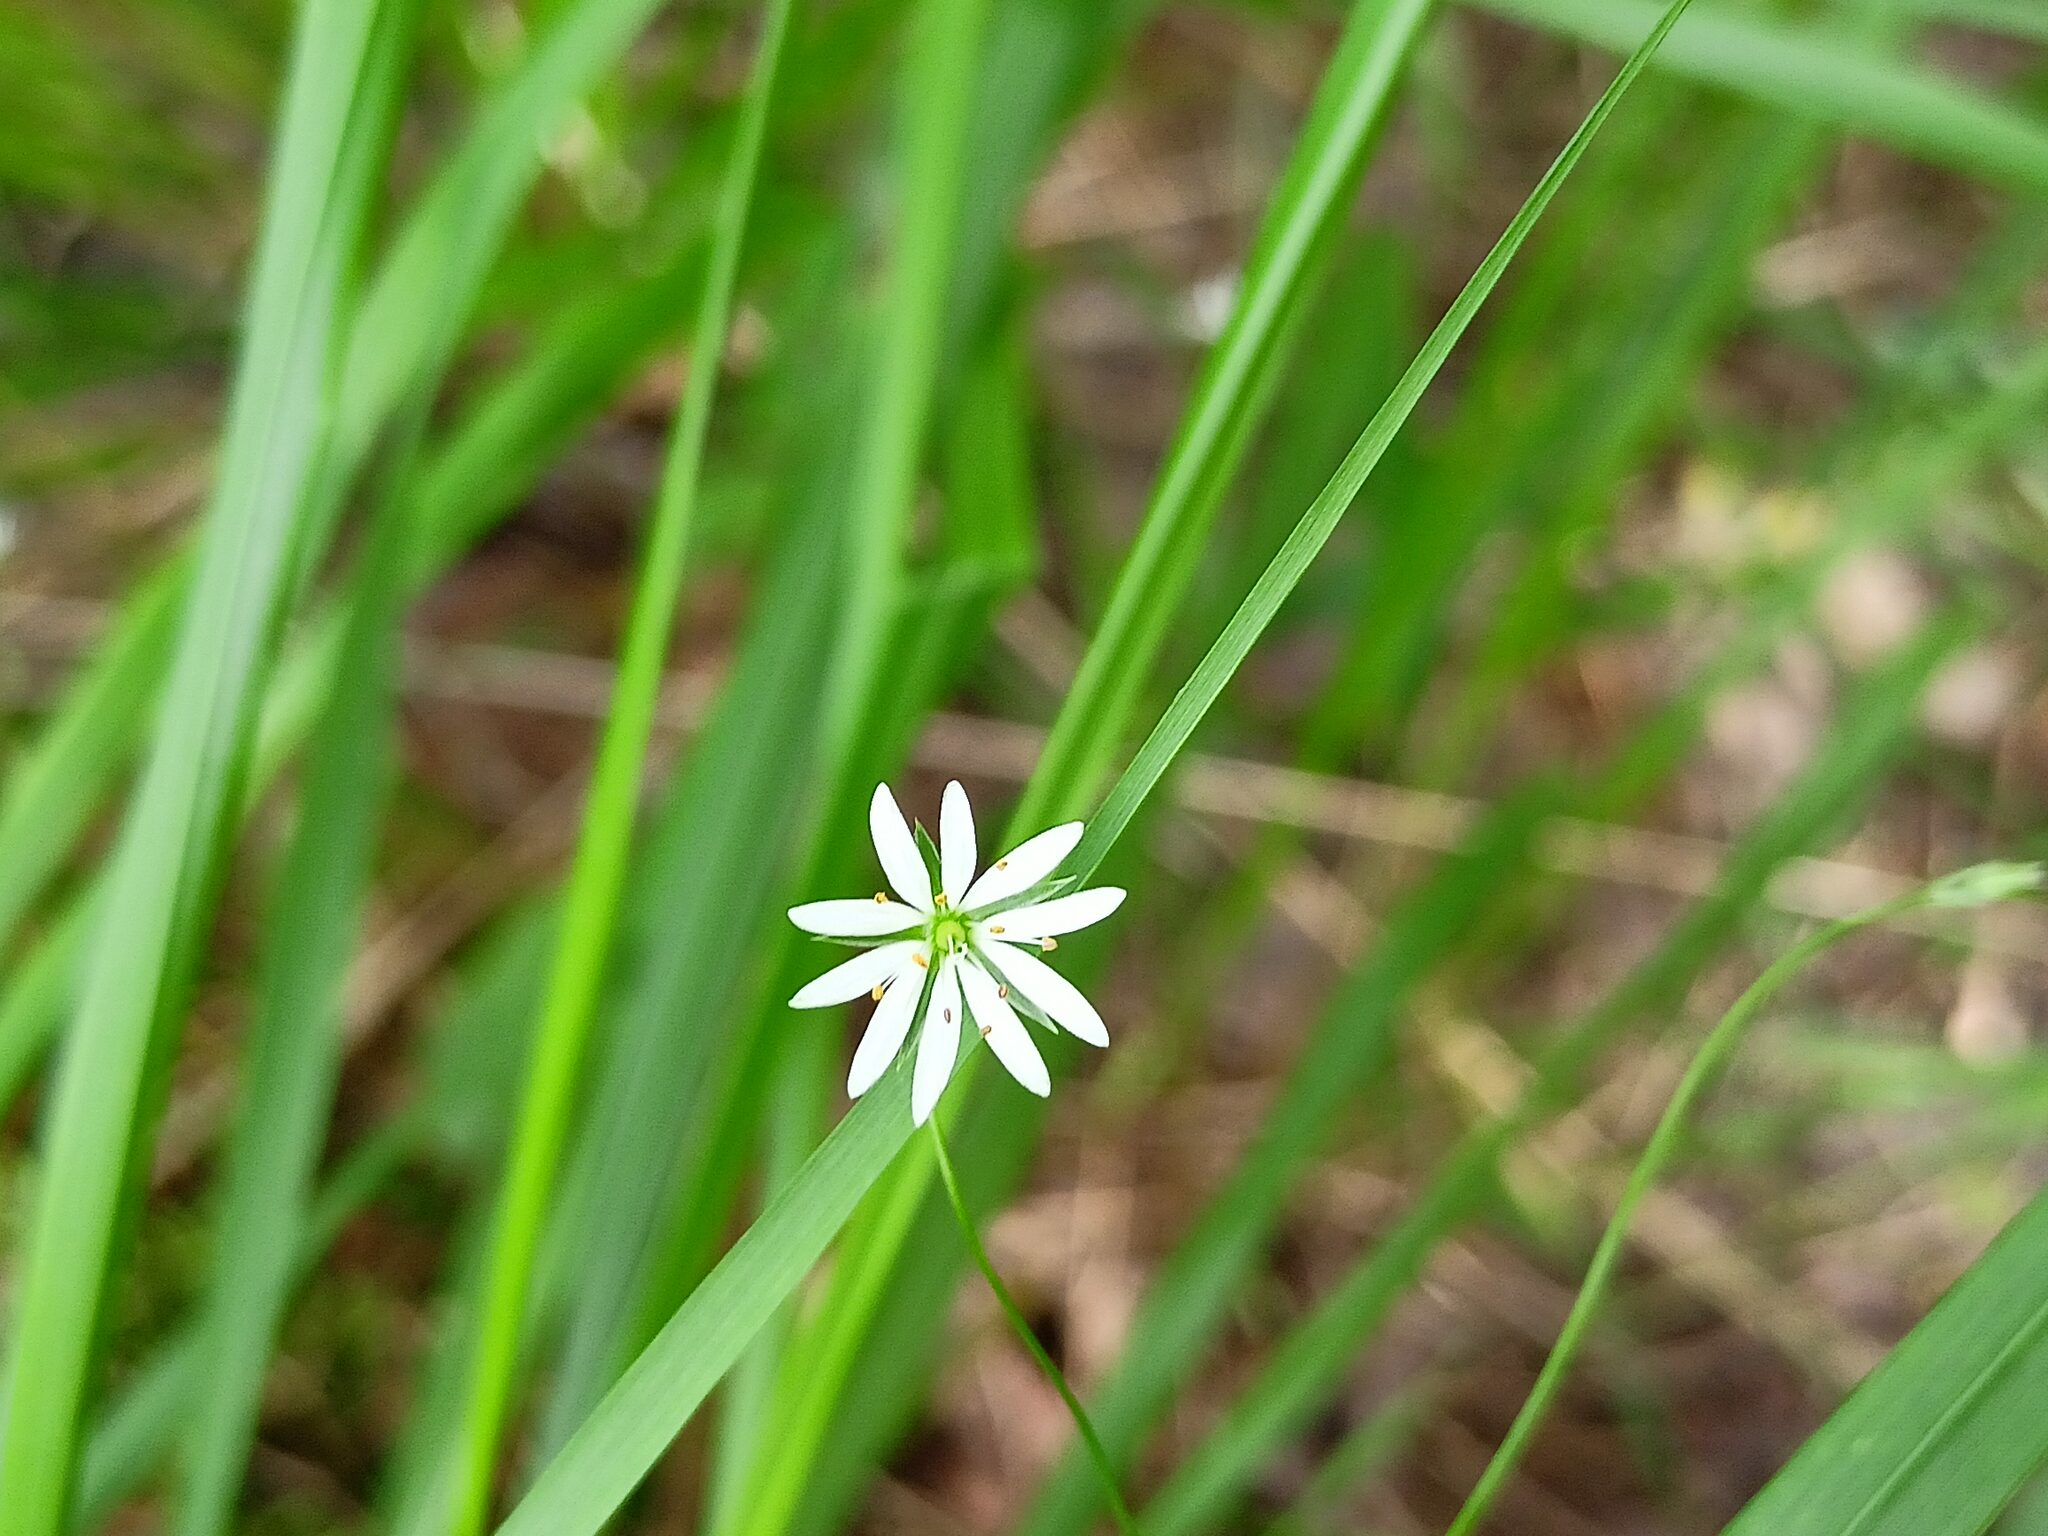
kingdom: Plantae
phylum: Tracheophyta
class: Magnoliopsida
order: Caryophyllales
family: Caryophyllaceae
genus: Stellaria
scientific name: Stellaria graminea
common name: Grass-like starwort
